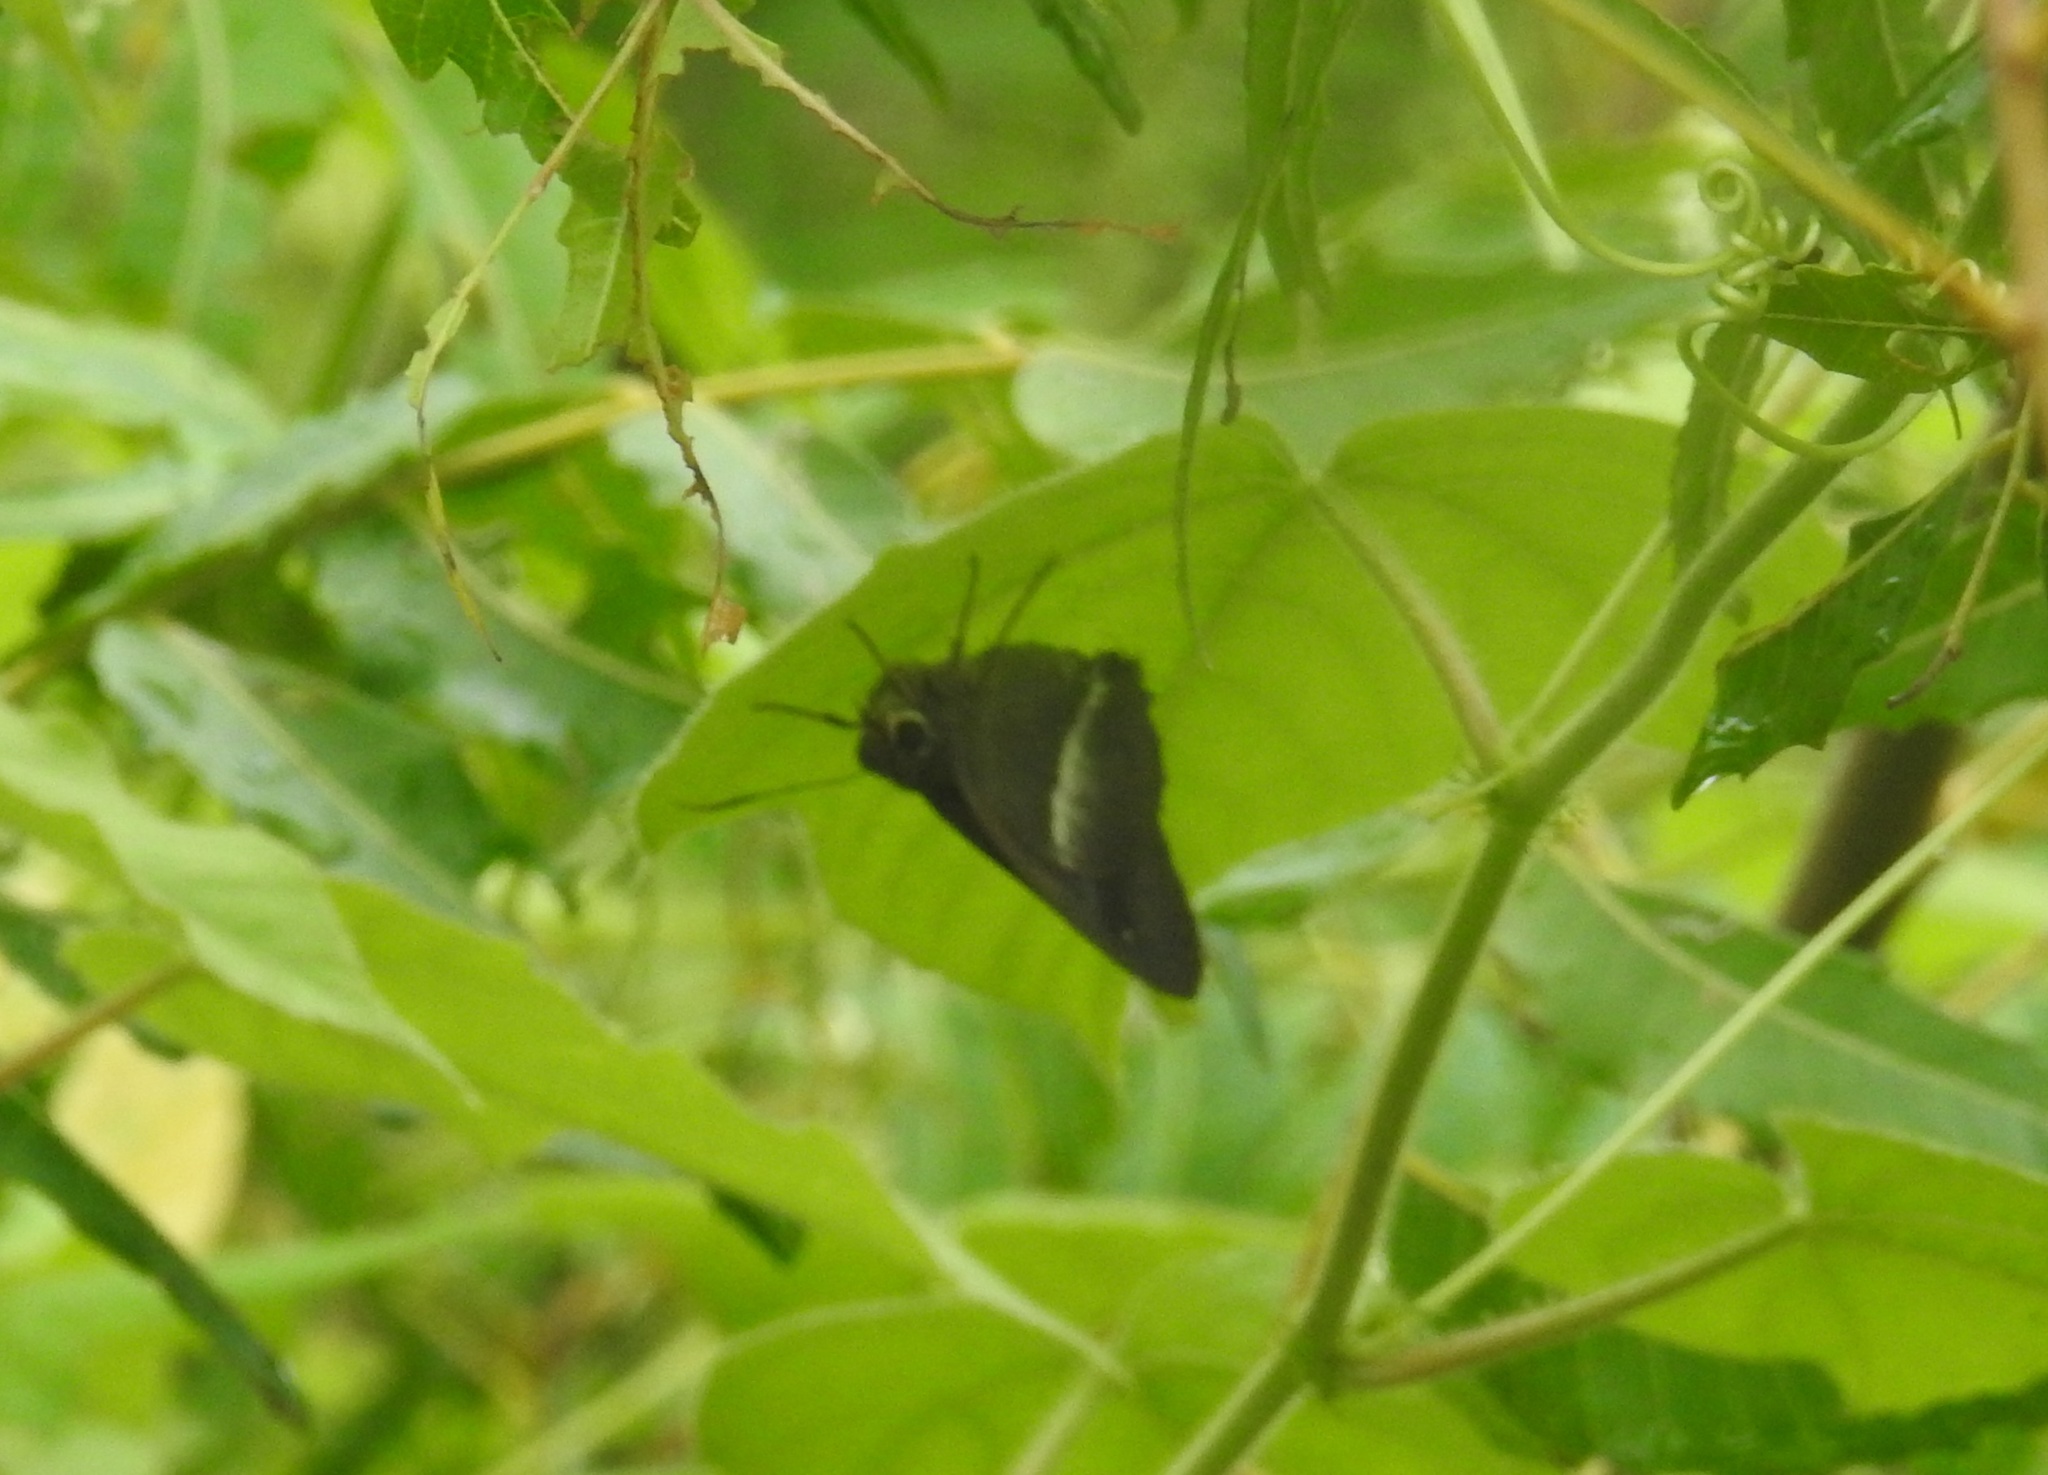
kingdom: Animalia
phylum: Arthropoda
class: Insecta
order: Lepidoptera
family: Hesperiidae
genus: Hasora
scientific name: Hasora chromus
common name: Common banded awl
